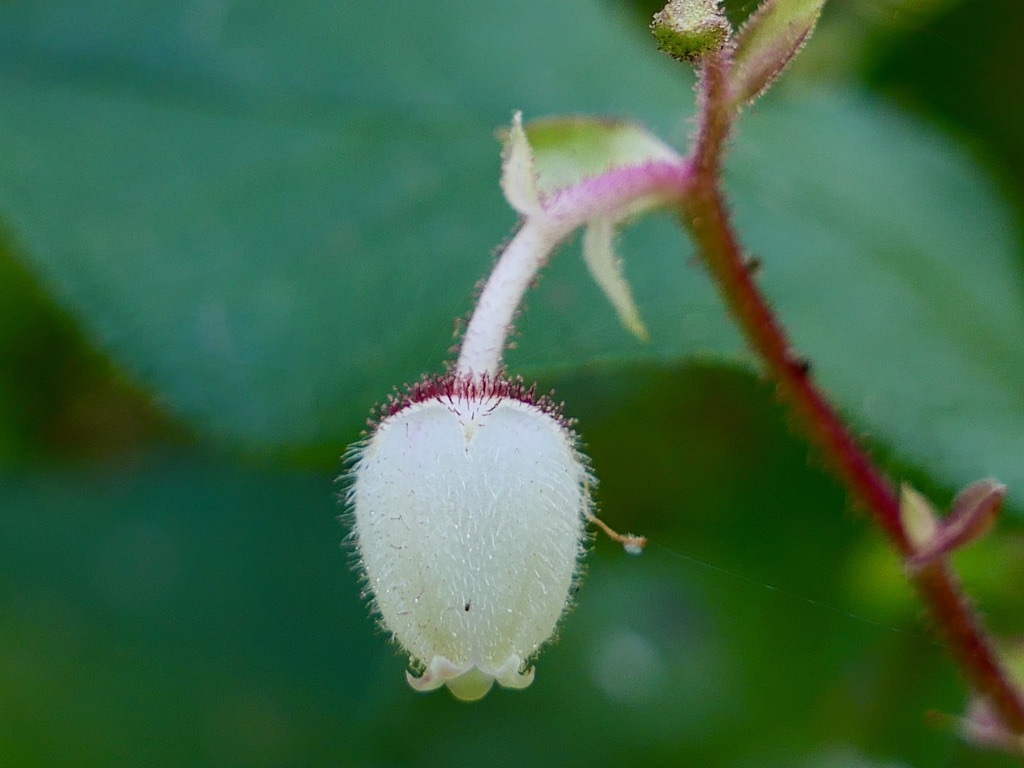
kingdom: Plantae
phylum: Tracheophyta
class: Magnoliopsida
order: Ericales
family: Ericaceae
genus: Gaultheria
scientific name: Gaultheria shallon
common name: Shallon
